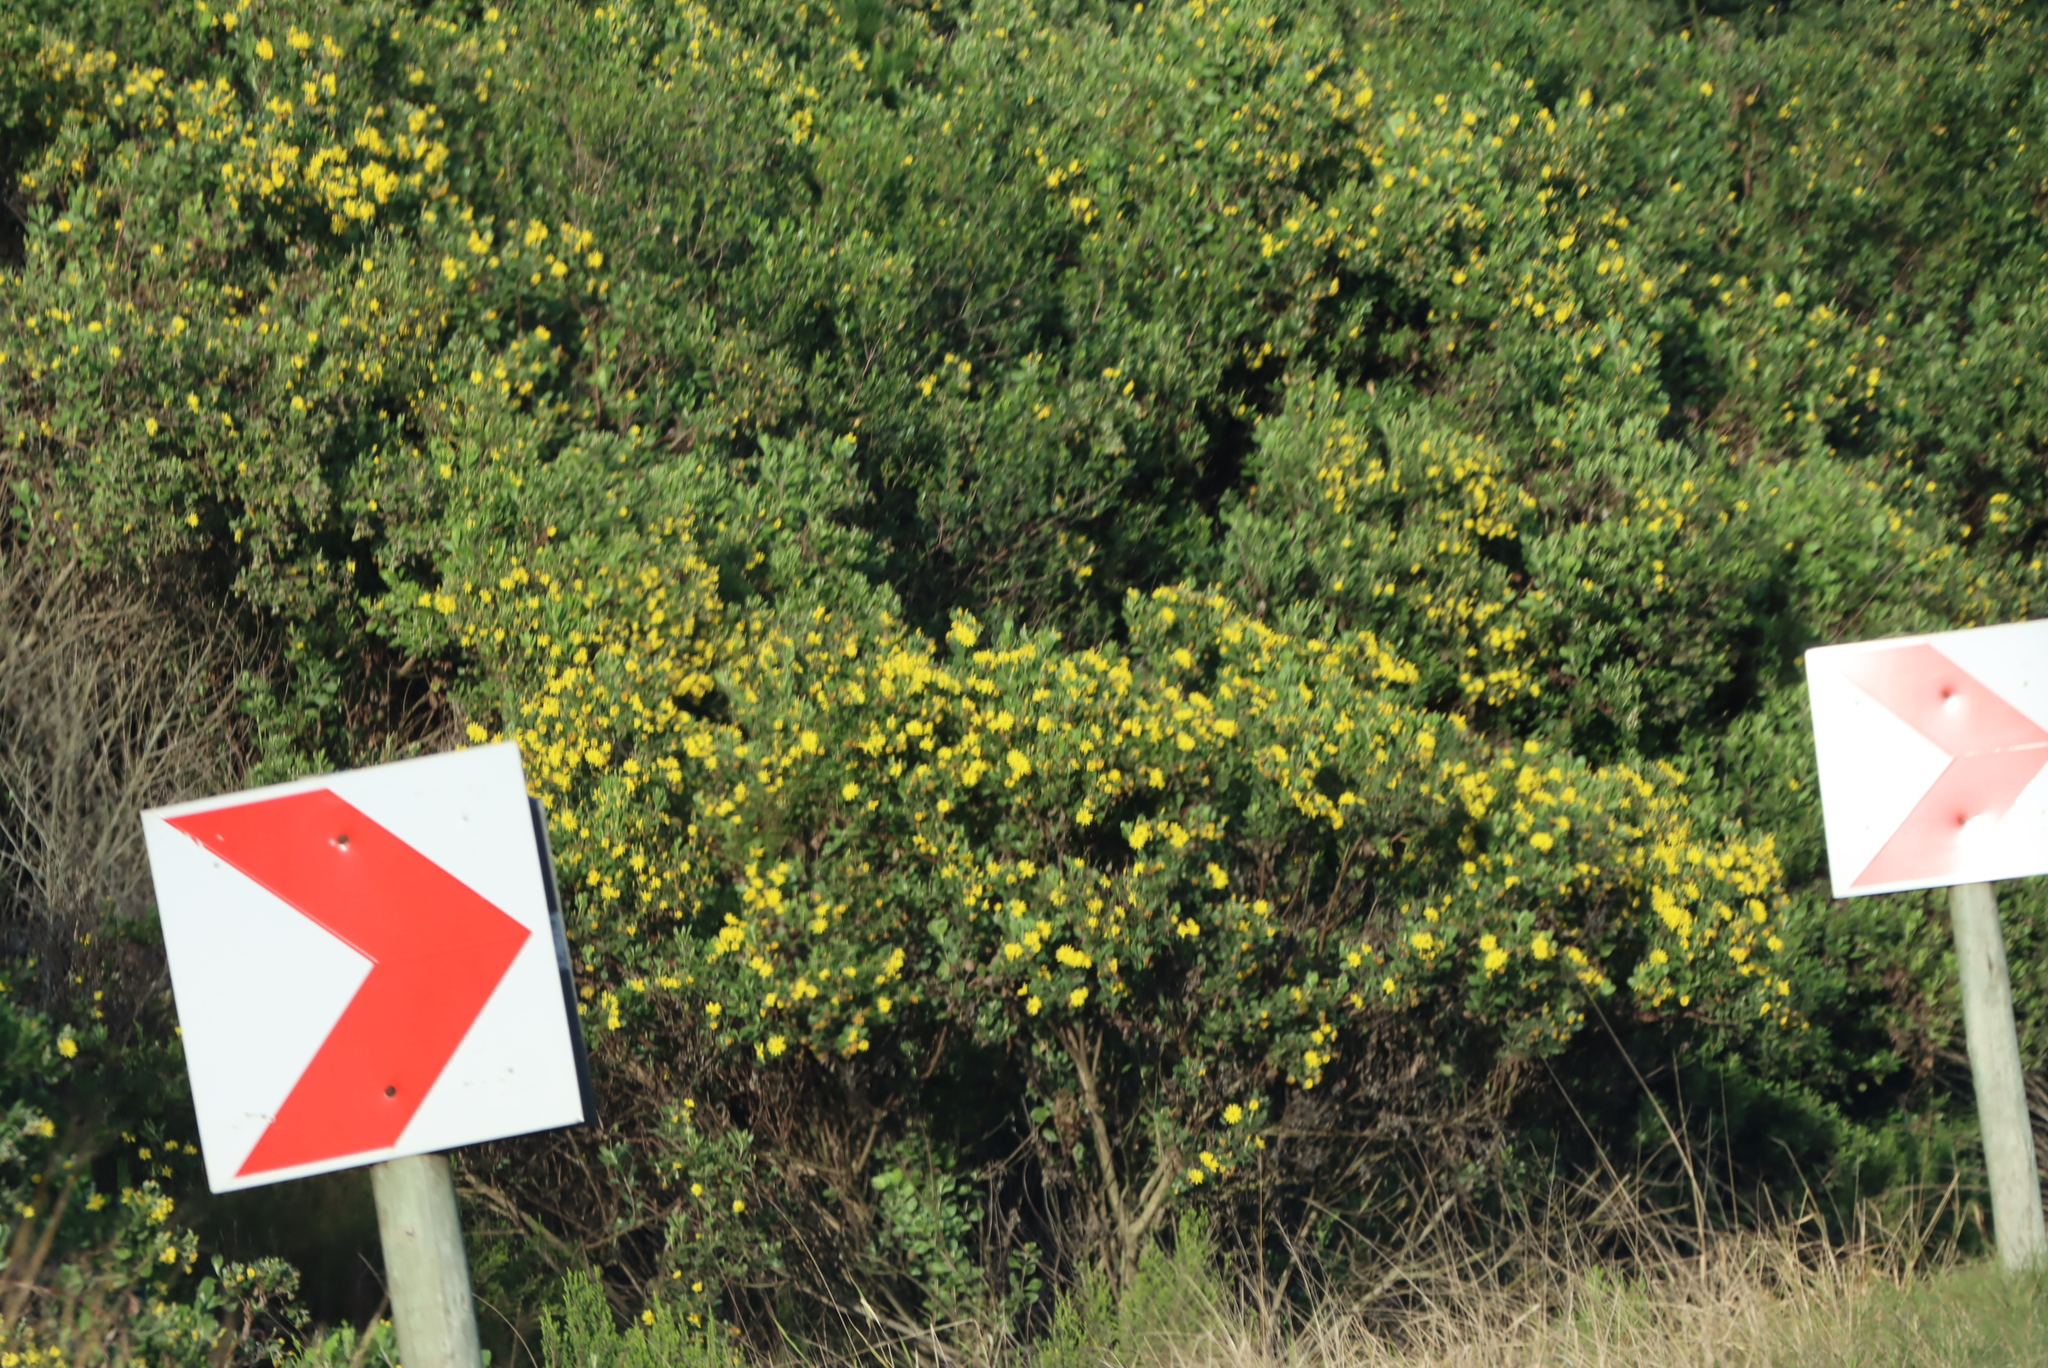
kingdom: Plantae
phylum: Tracheophyta
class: Magnoliopsida
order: Asterales
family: Asteraceae
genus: Osteospermum
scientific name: Osteospermum moniliferum
